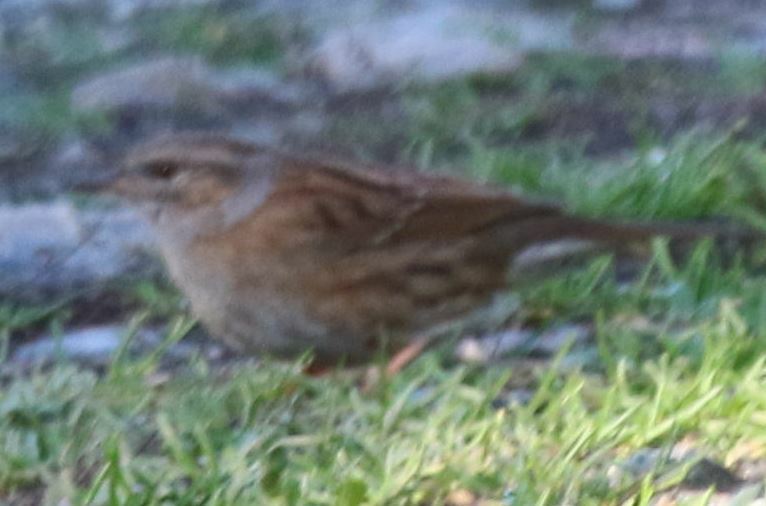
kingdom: Animalia
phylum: Chordata
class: Aves
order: Passeriformes
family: Prunellidae
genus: Prunella
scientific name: Prunella modularis
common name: Dunnock
